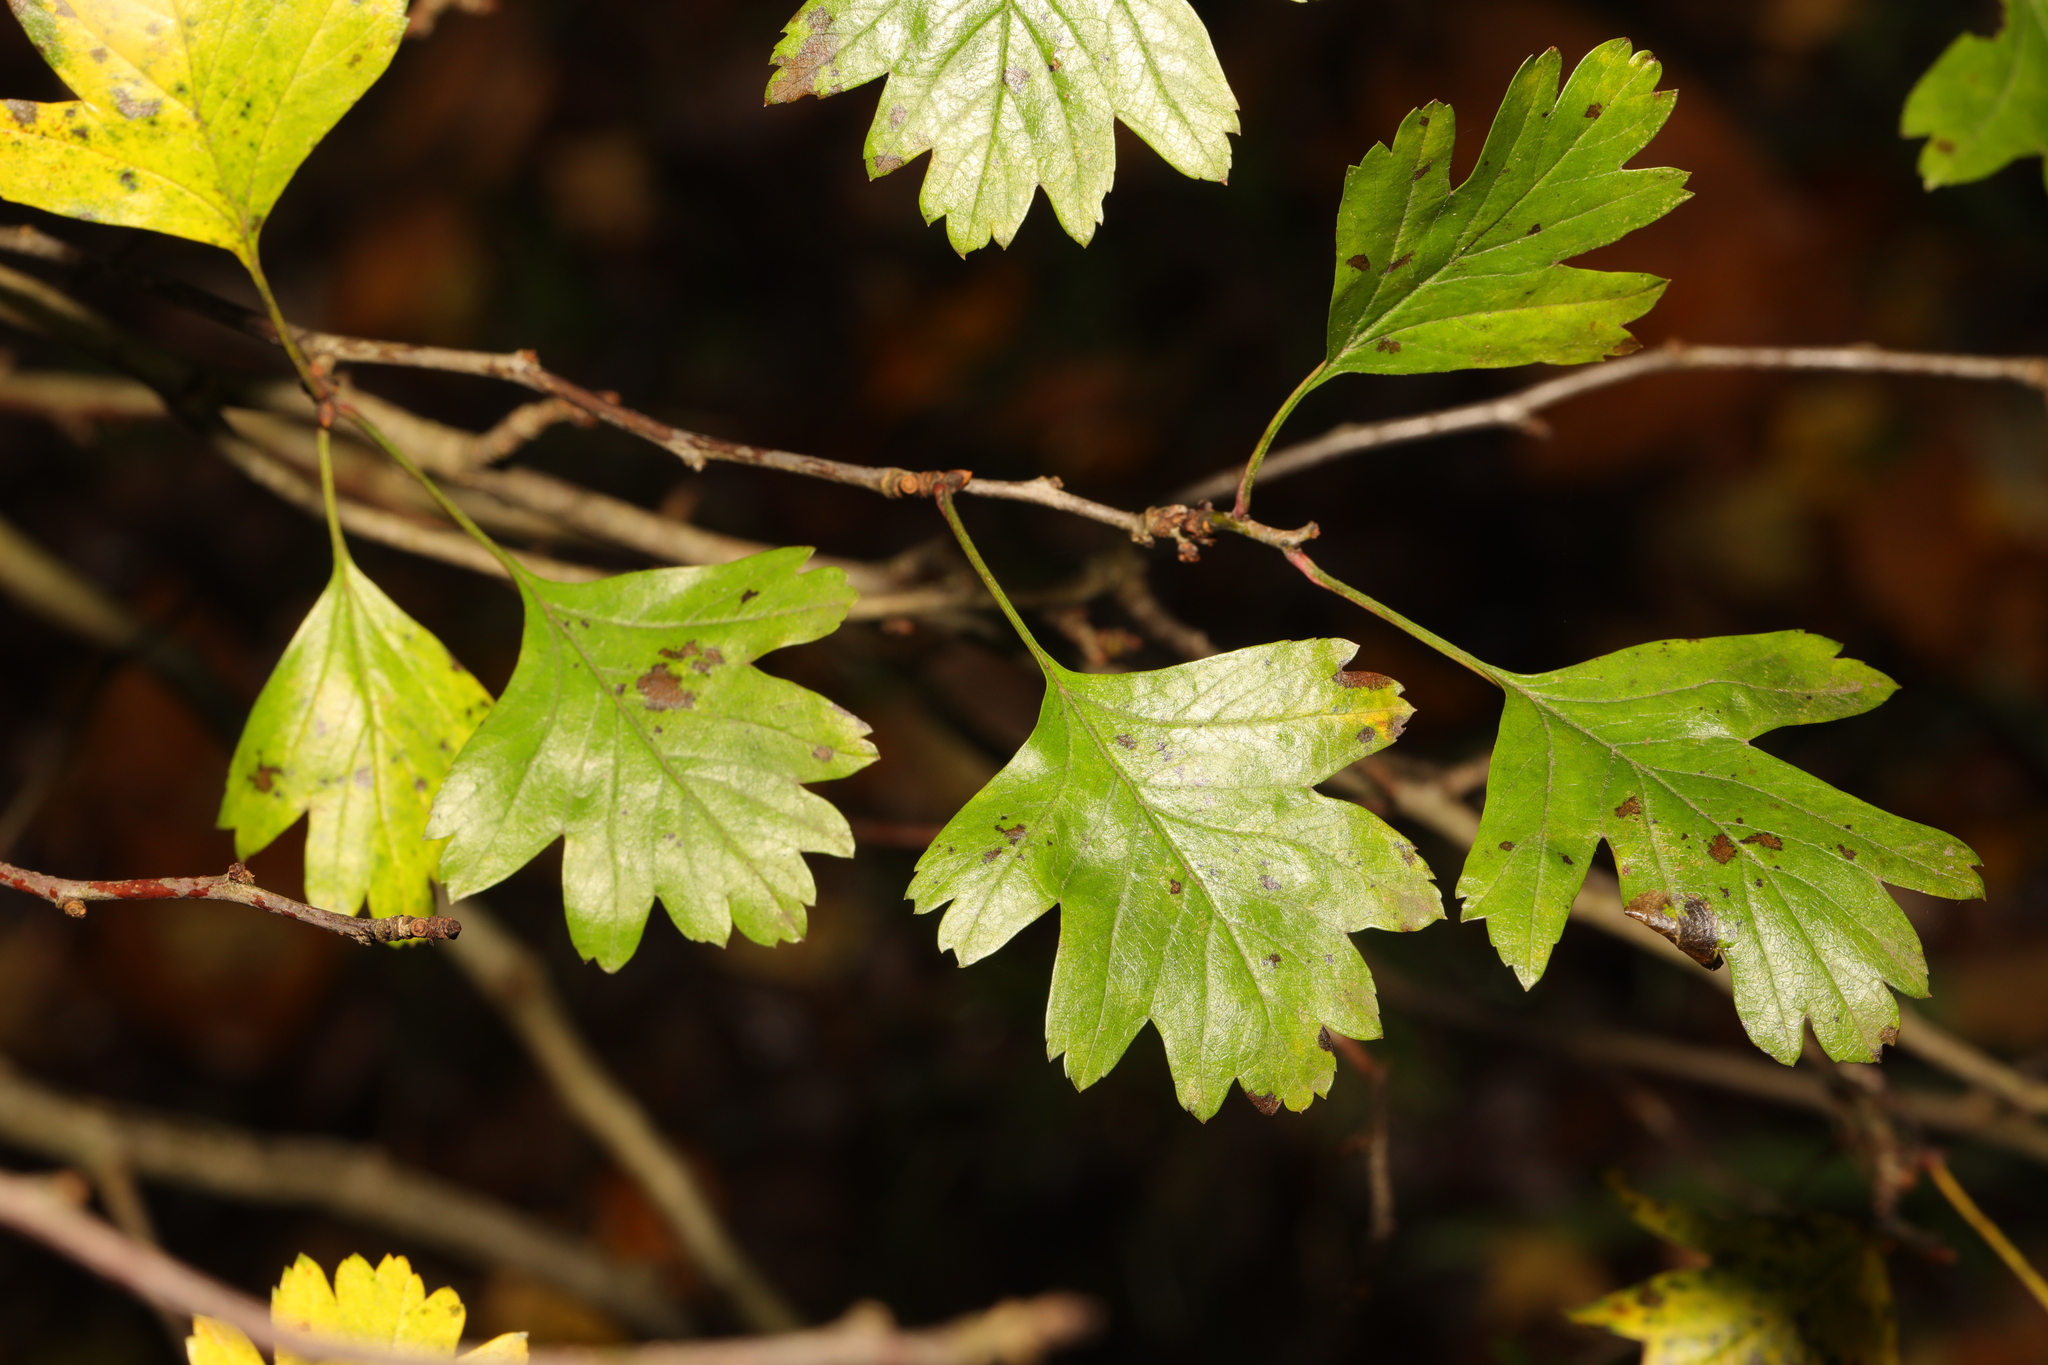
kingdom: Plantae
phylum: Tracheophyta
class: Magnoliopsida
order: Rosales
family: Rosaceae
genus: Crataegus
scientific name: Crataegus monogyna
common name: Hawthorn
